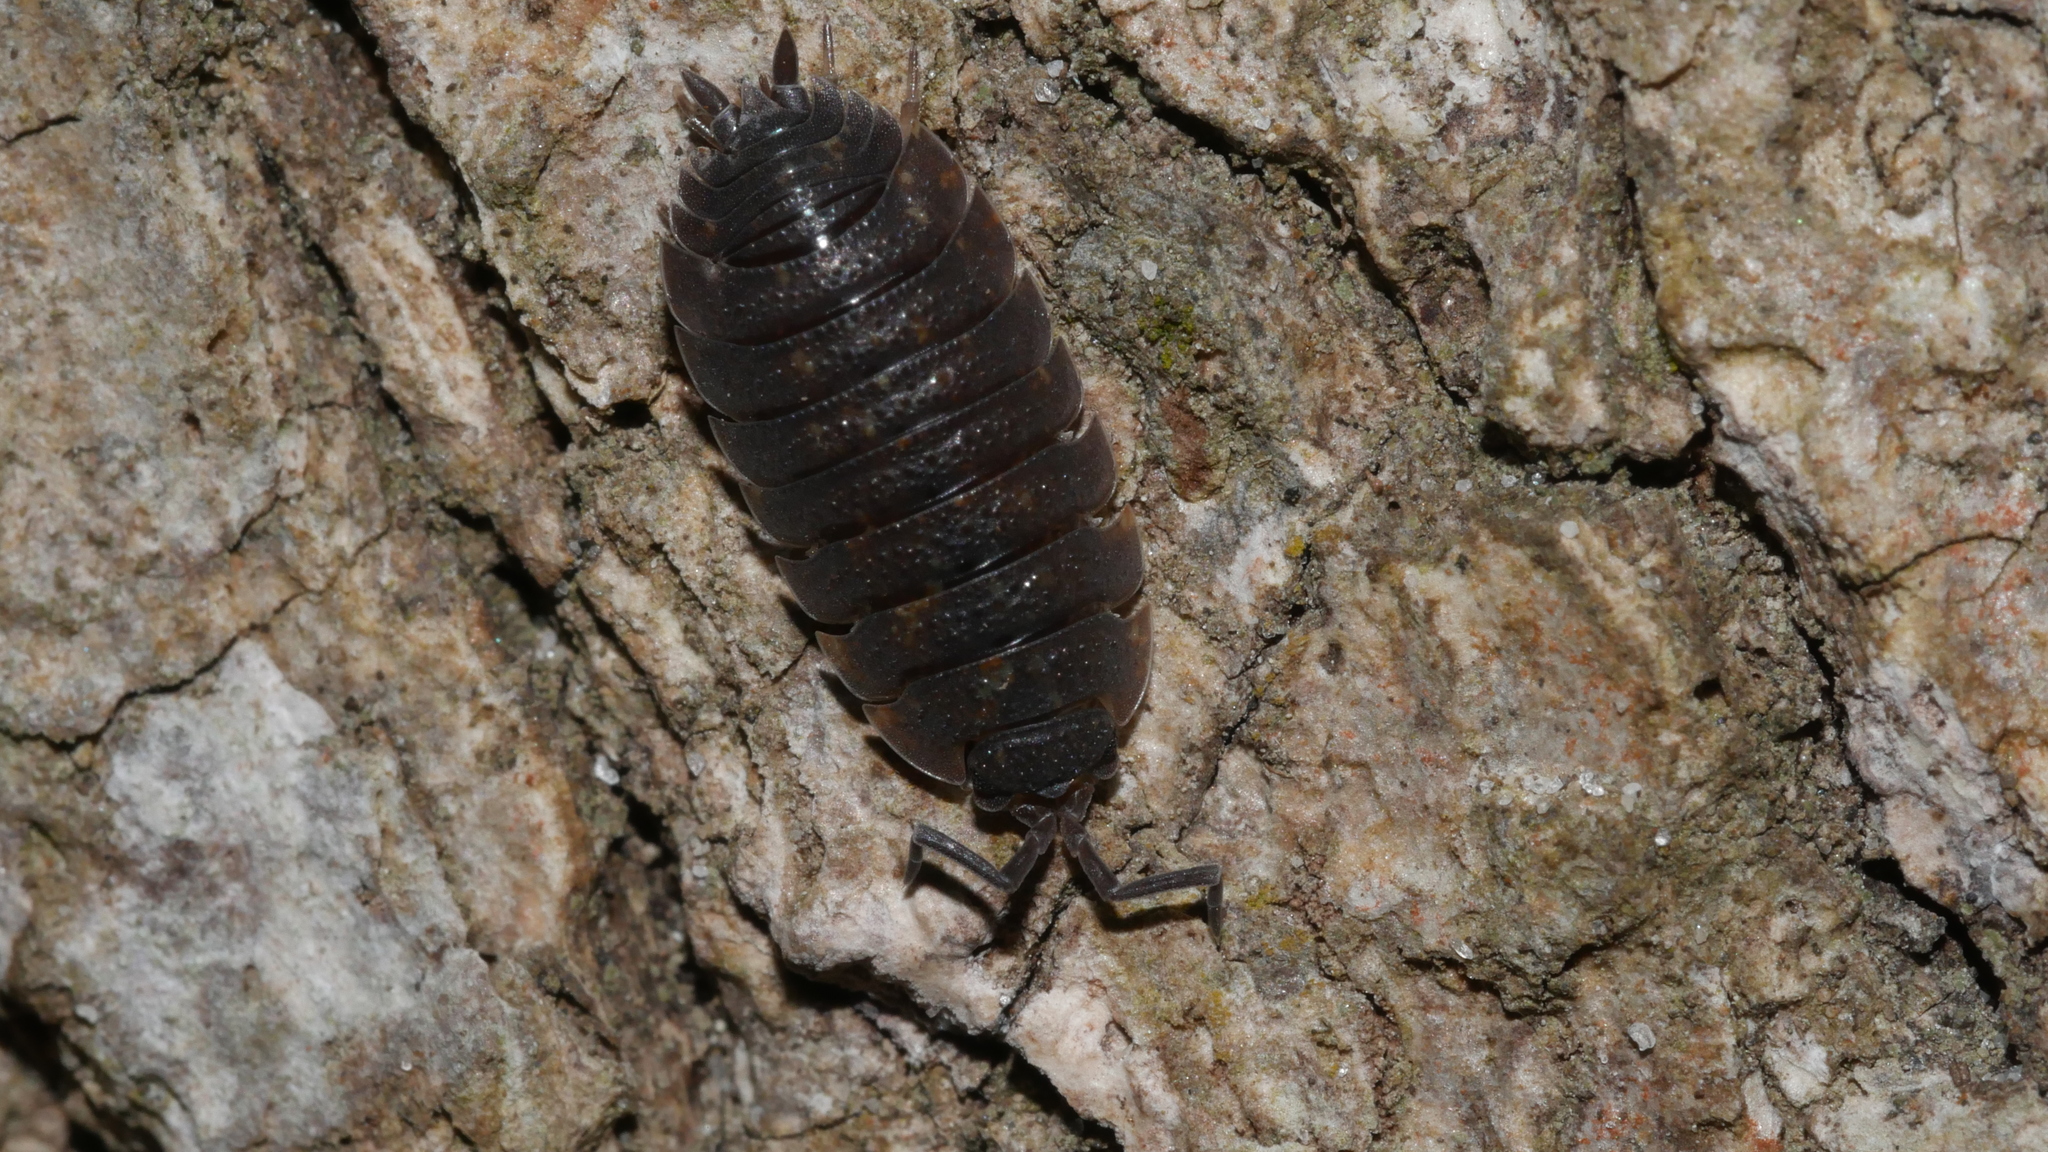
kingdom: Animalia
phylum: Arthropoda
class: Malacostraca
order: Isopoda
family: Porcellionidae
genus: Porcellio
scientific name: Porcellio scaber
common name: Common rough woodlouse
